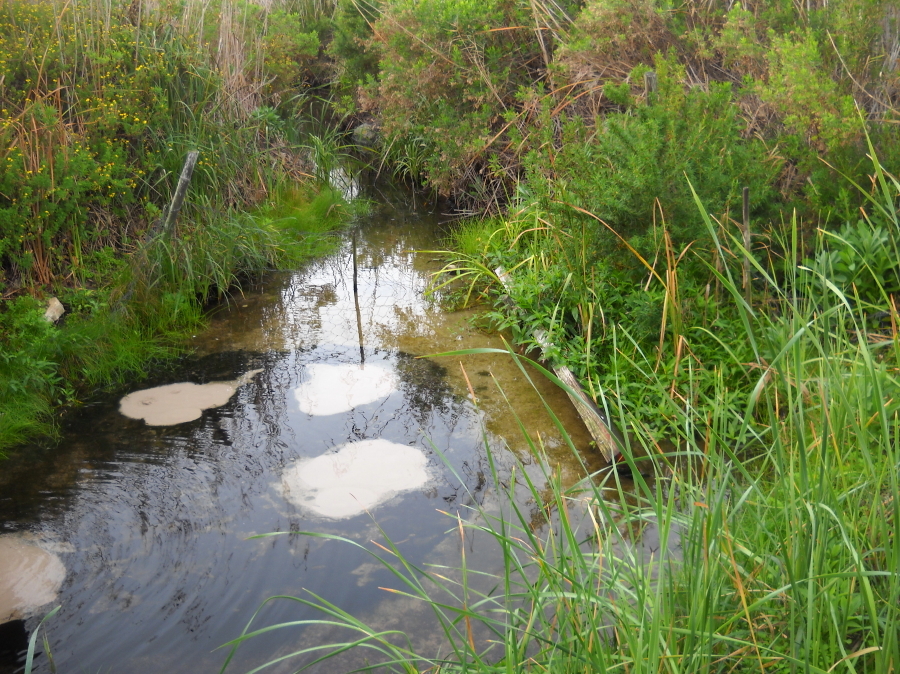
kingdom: Plantae
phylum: Tracheophyta
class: Magnoliopsida
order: Rosales
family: Rosaceae
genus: Cliffortia
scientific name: Cliffortia longifolia
